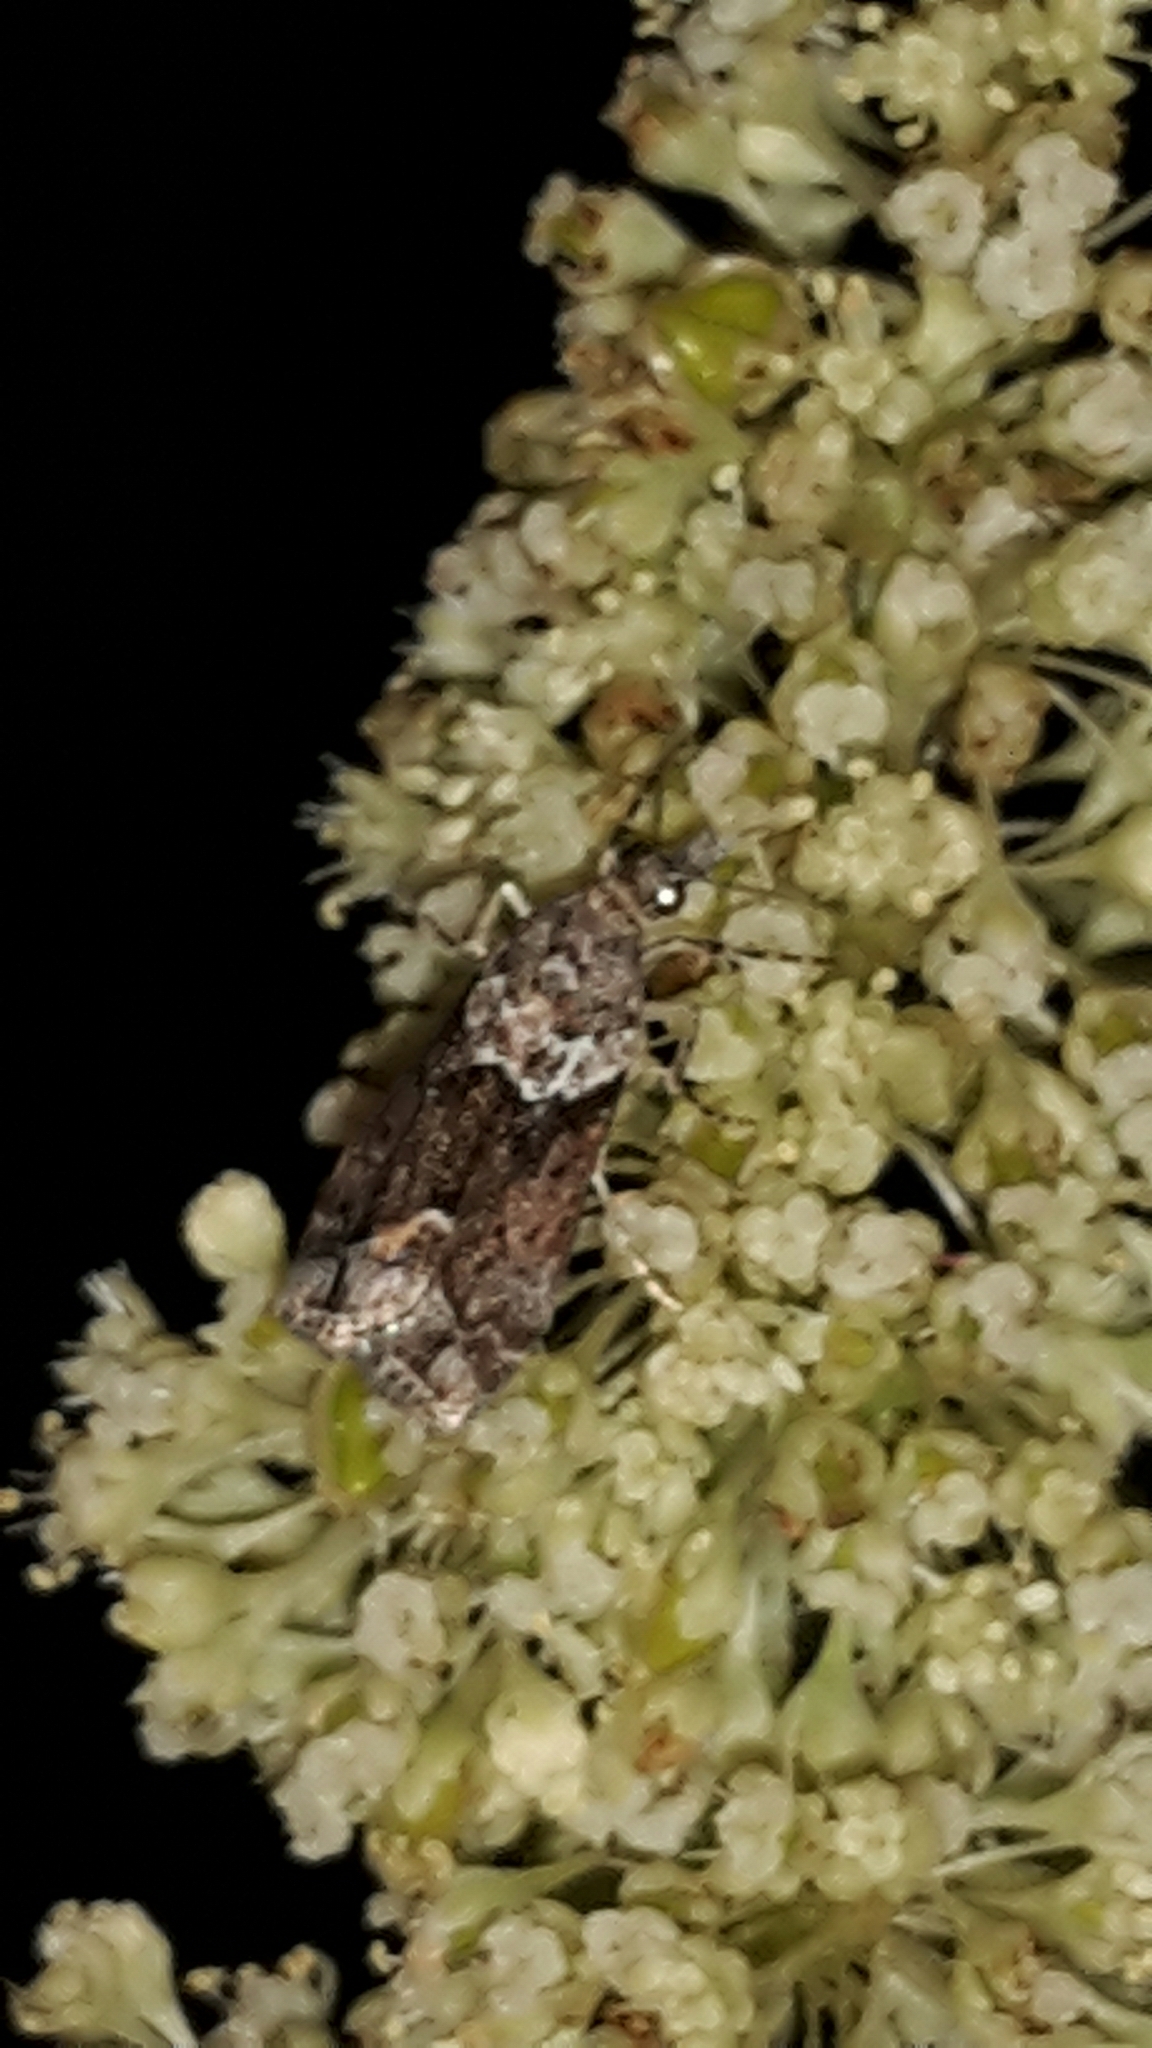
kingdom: Animalia
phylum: Arthropoda
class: Insecta
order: Lepidoptera
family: Crambidae
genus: Eudonia
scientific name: Eudonia submarginalis
